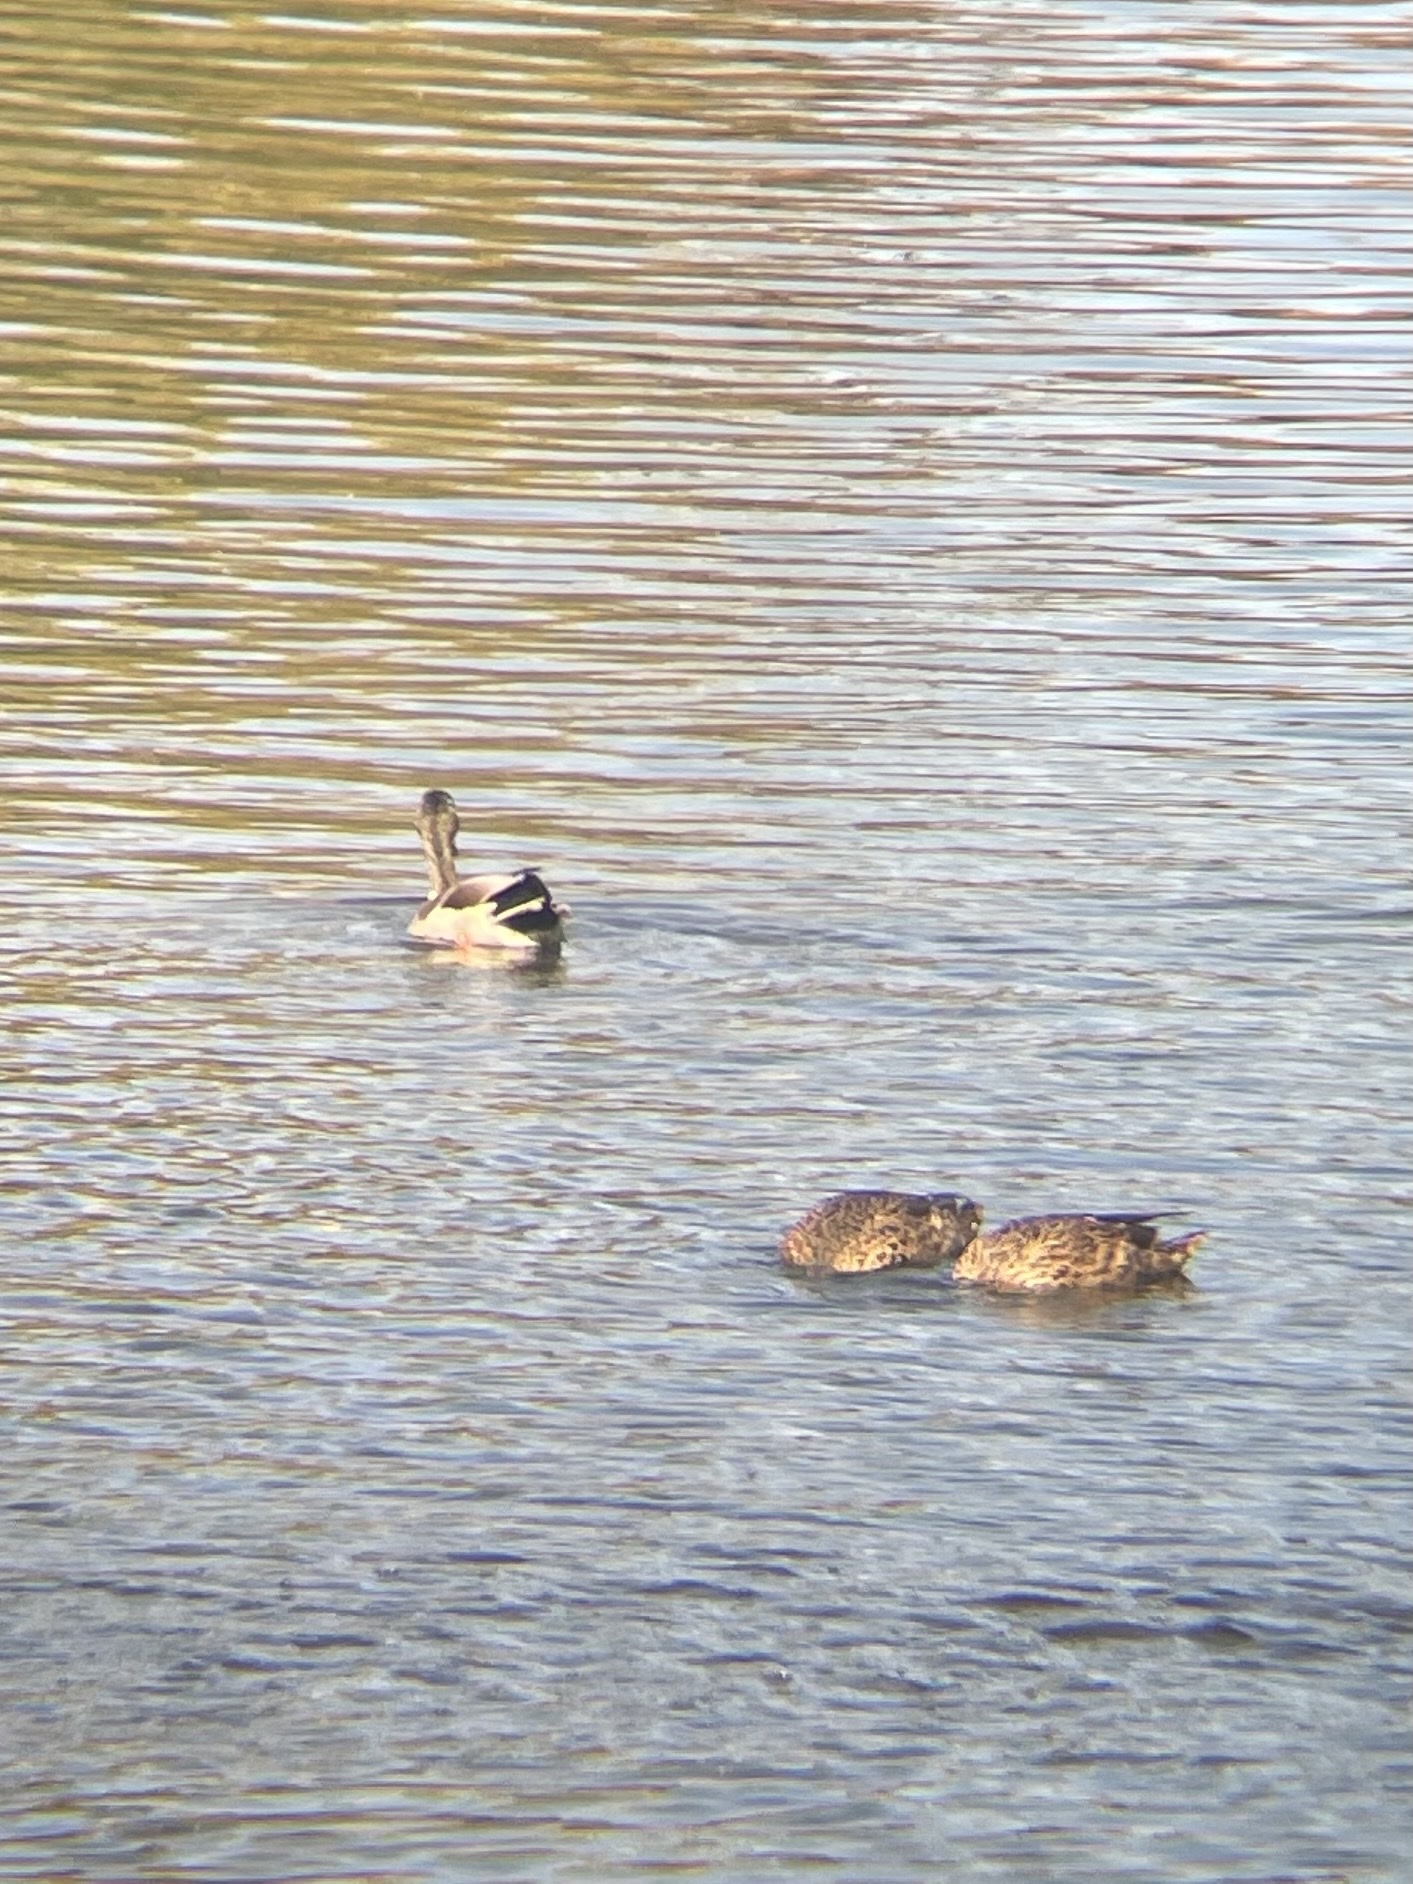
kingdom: Animalia
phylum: Chordata
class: Aves
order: Anseriformes
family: Anatidae
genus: Anas
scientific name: Anas platyrhynchos
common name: Mallard
